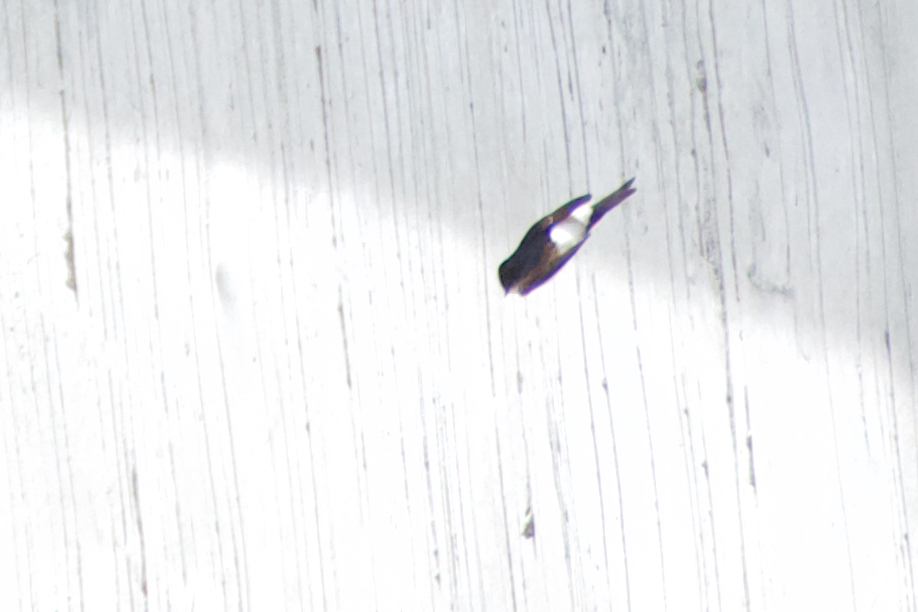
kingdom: Animalia
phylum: Chordata
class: Aves
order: Passeriformes
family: Hirundinidae
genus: Delichon
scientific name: Delichon urbicum
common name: Common house martin
